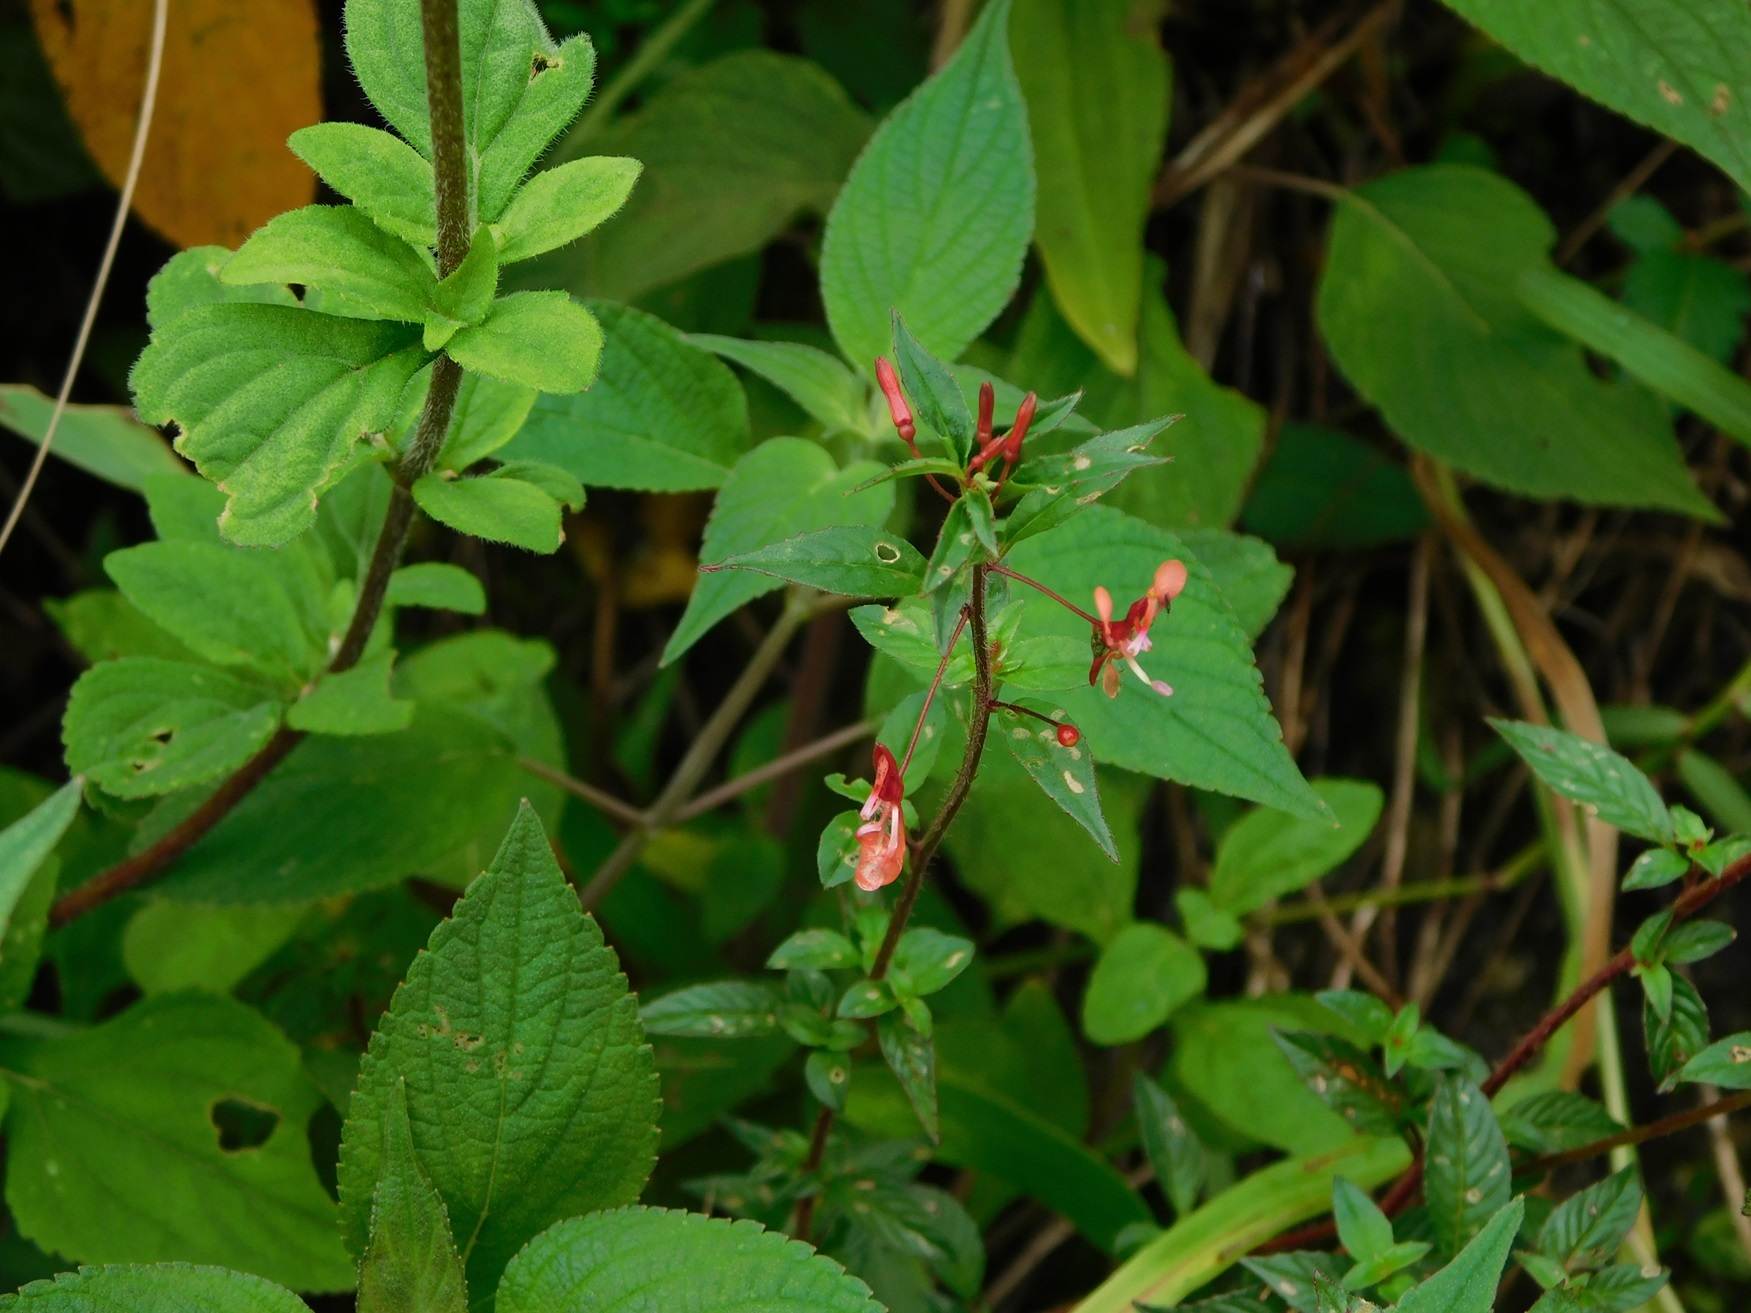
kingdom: Plantae
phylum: Tracheophyta
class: Magnoliopsida
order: Myrtales
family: Onagraceae
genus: Lopezia
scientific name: Lopezia racemosa
